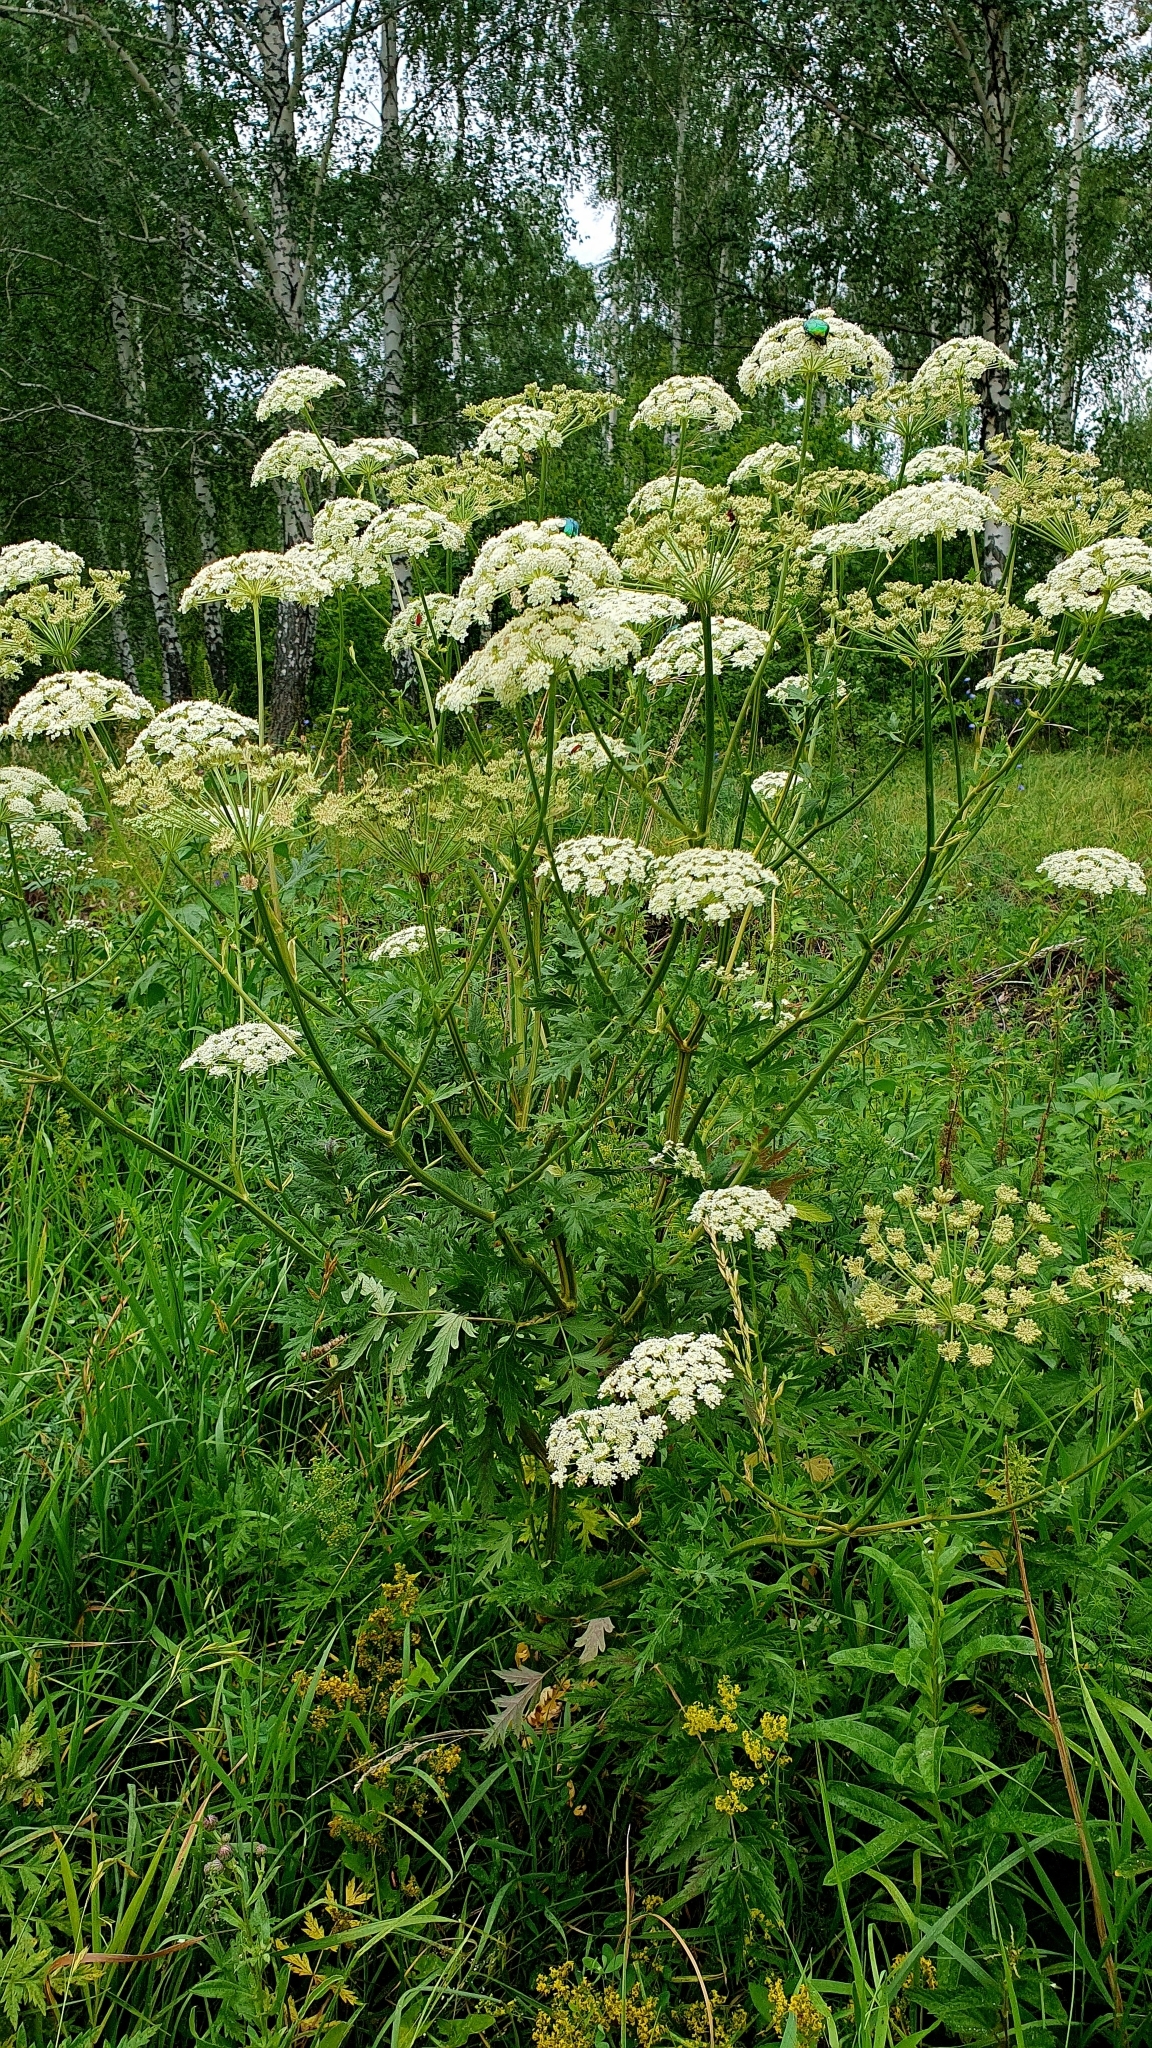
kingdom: Plantae
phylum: Tracheophyta
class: Magnoliopsida
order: Apiales
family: Apiaceae
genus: Seseli
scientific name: Seseli libanotis
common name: Mooncarrot
